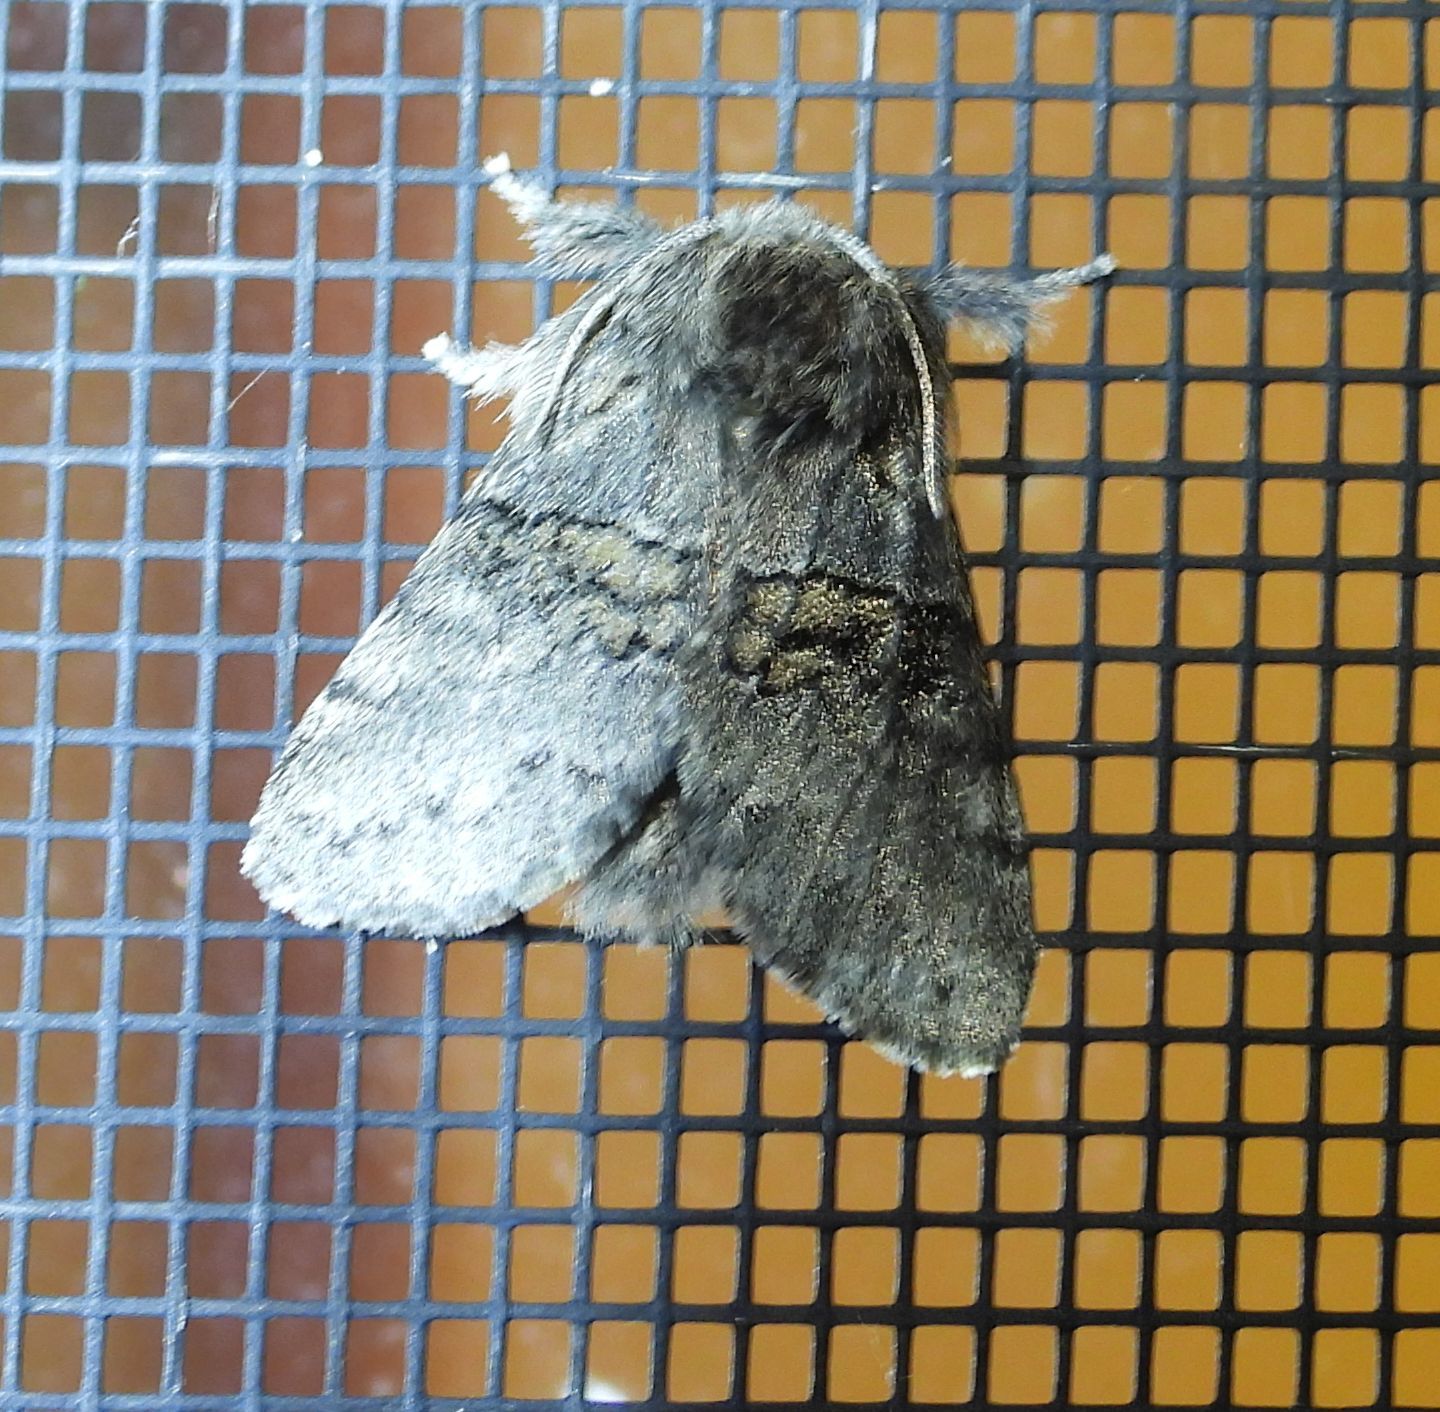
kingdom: Animalia
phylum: Arthropoda
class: Insecta
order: Lepidoptera
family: Notodontidae
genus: Gluphisia
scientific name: Gluphisia septentrionis
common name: Common gluphisia
